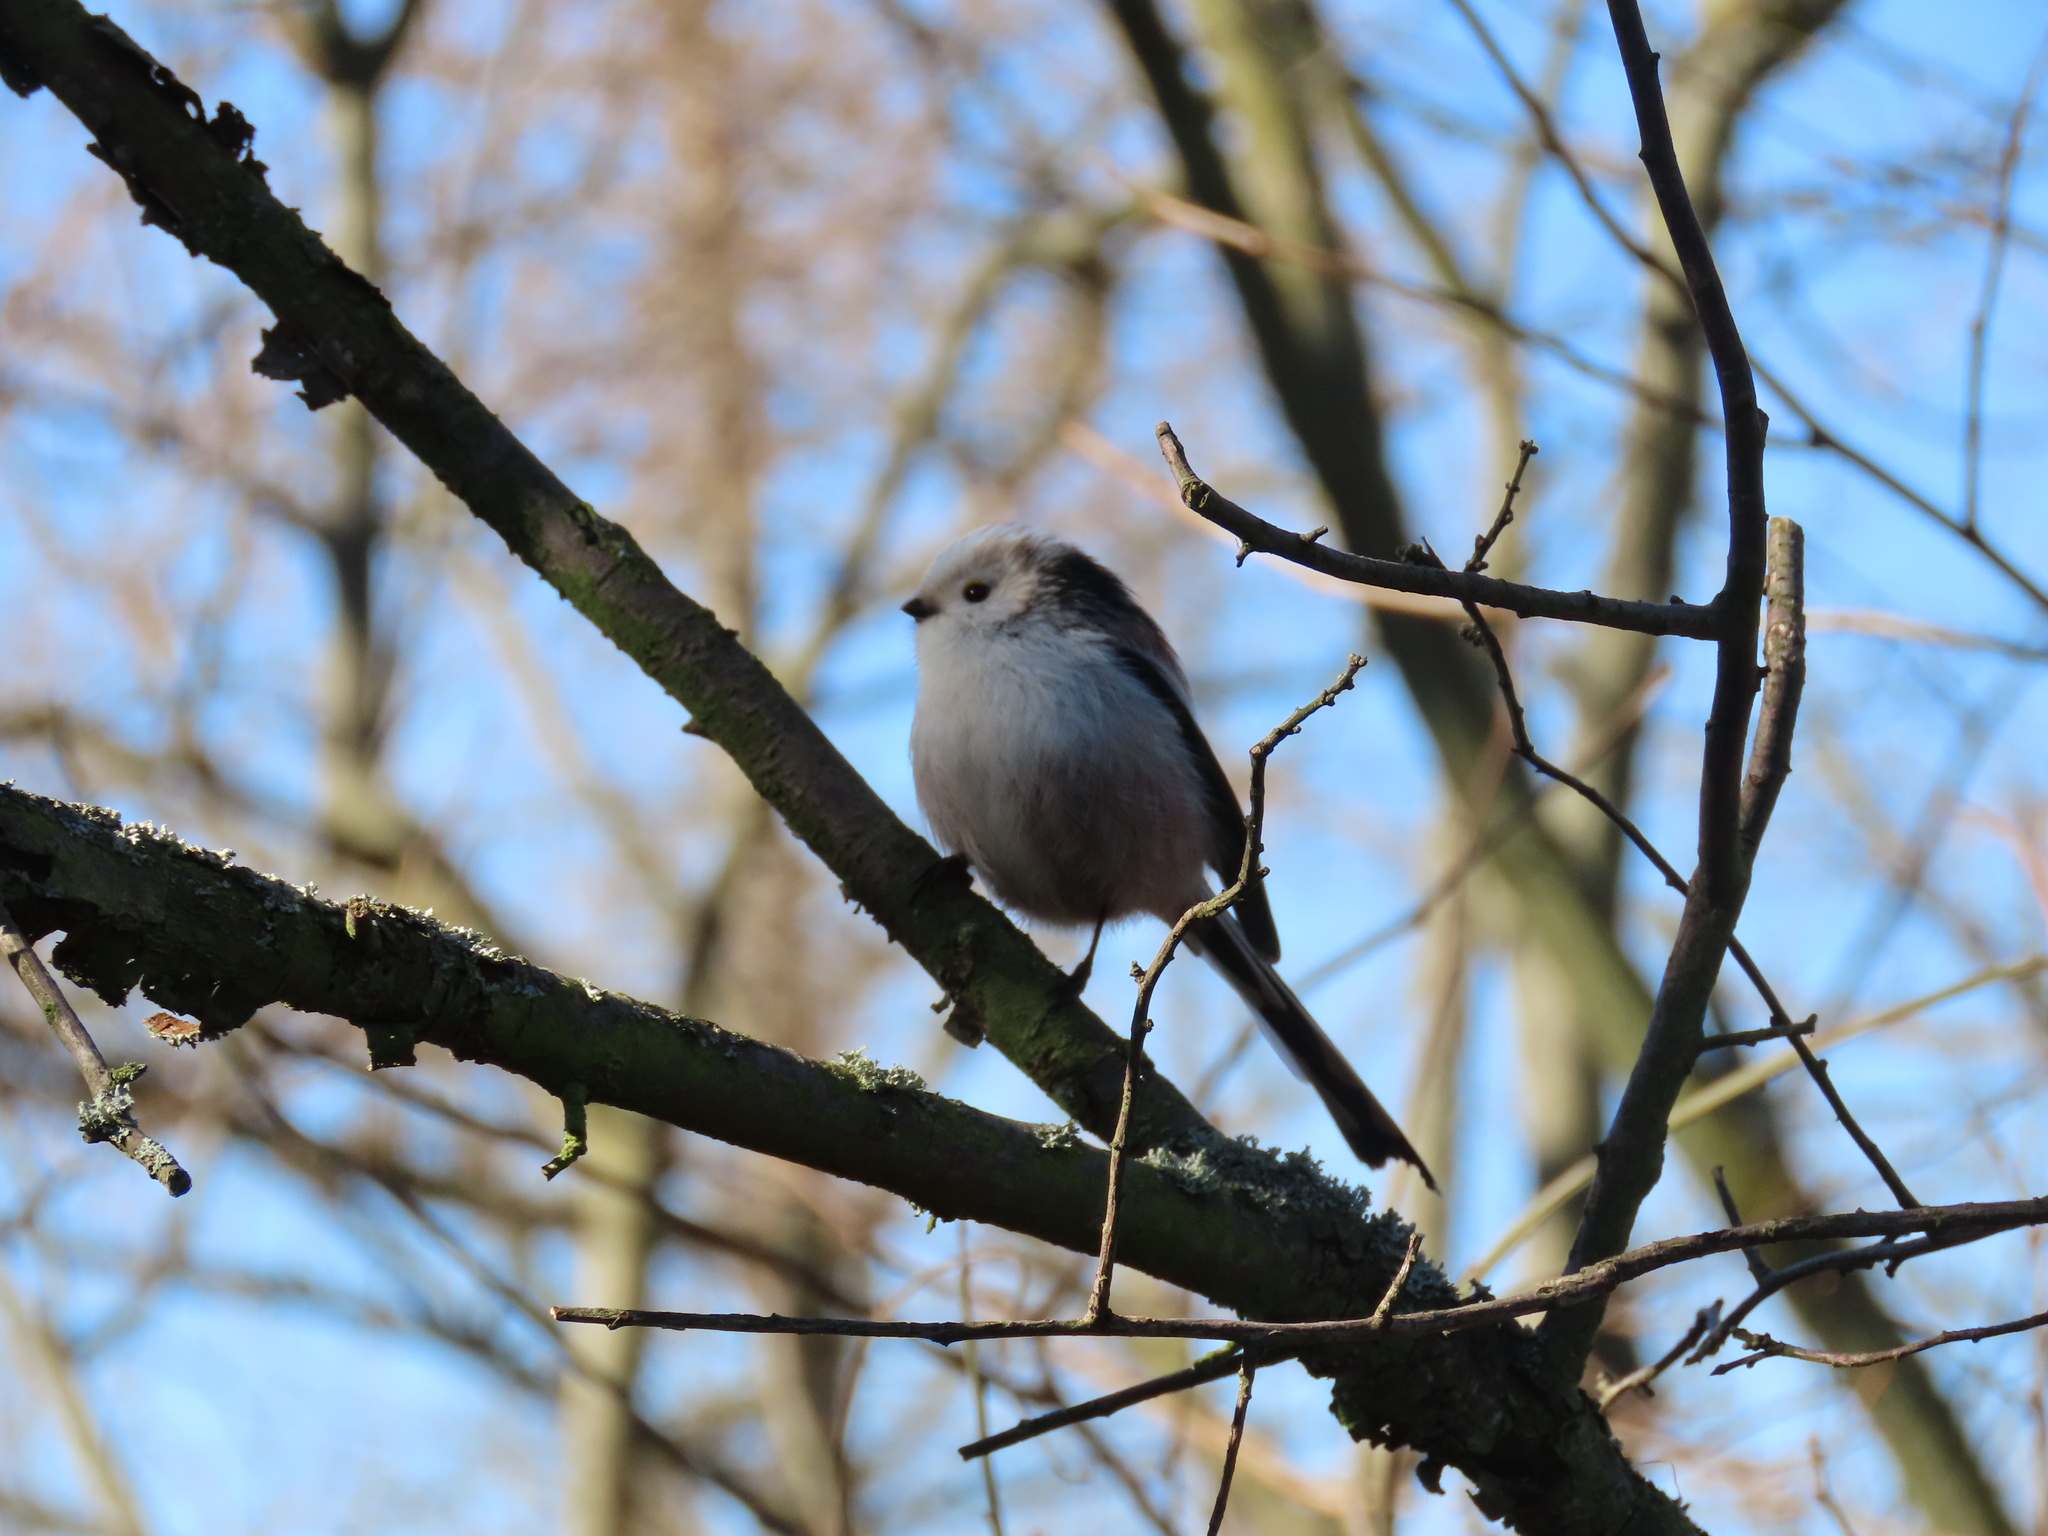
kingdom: Animalia
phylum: Chordata
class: Aves
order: Passeriformes
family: Aegithalidae
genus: Aegithalos
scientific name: Aegithalos caudatus
